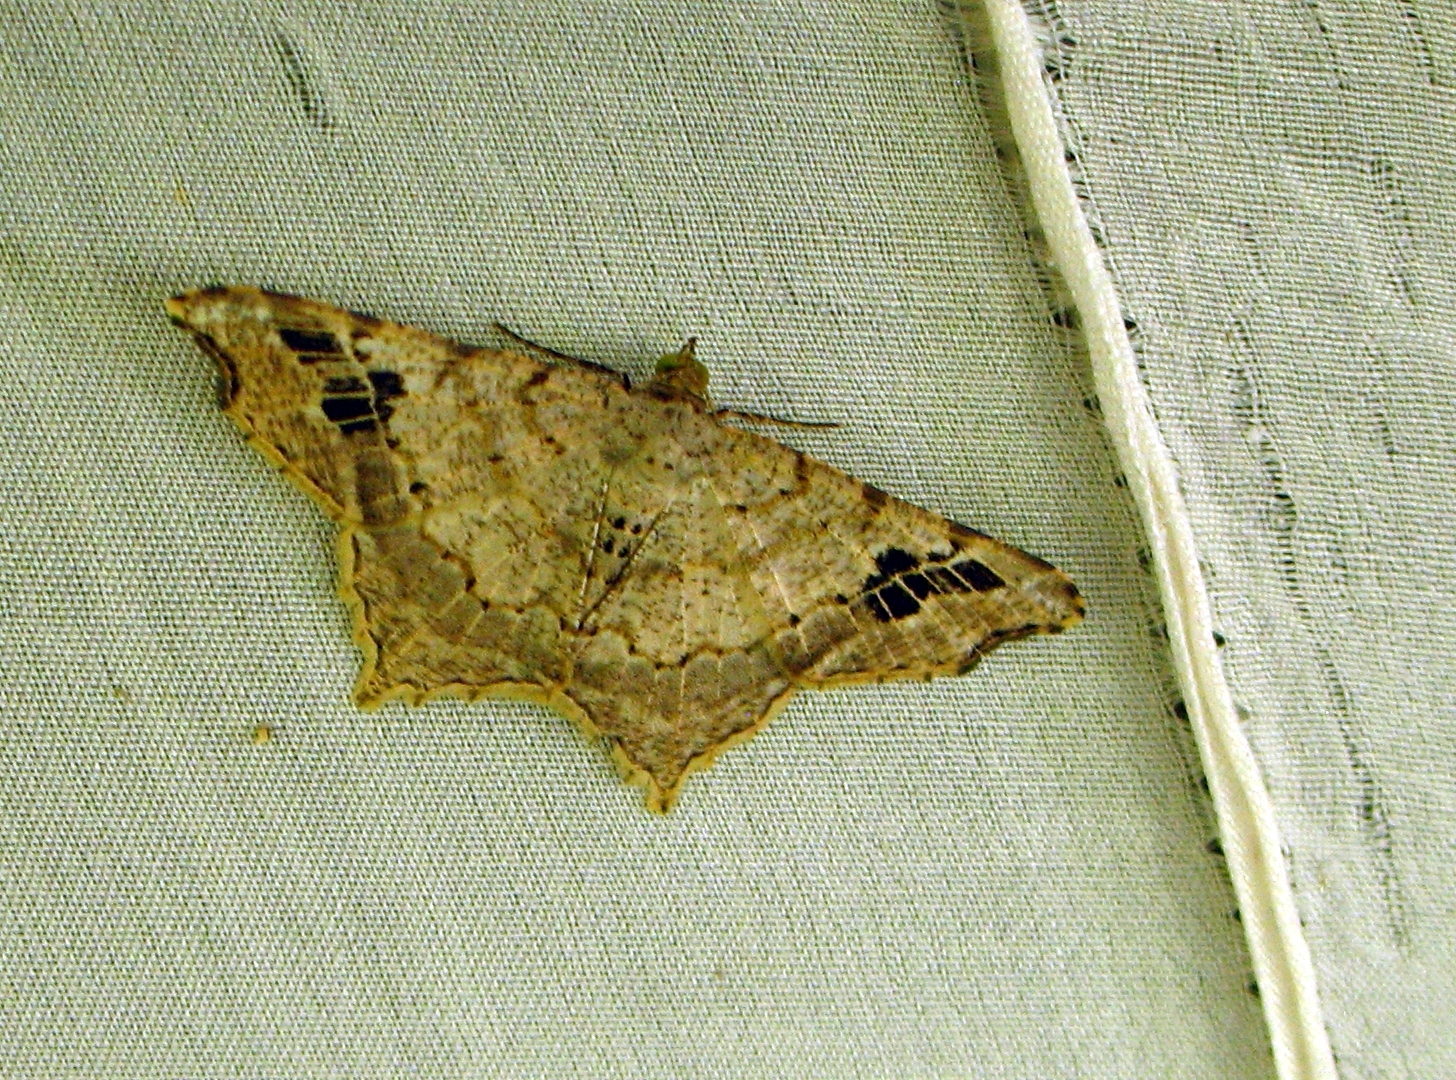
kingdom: Animalia
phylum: Arthropoda
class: Insecta
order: Lepidoptera
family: Geometridae
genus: Macaria
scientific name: Macaria regulata
